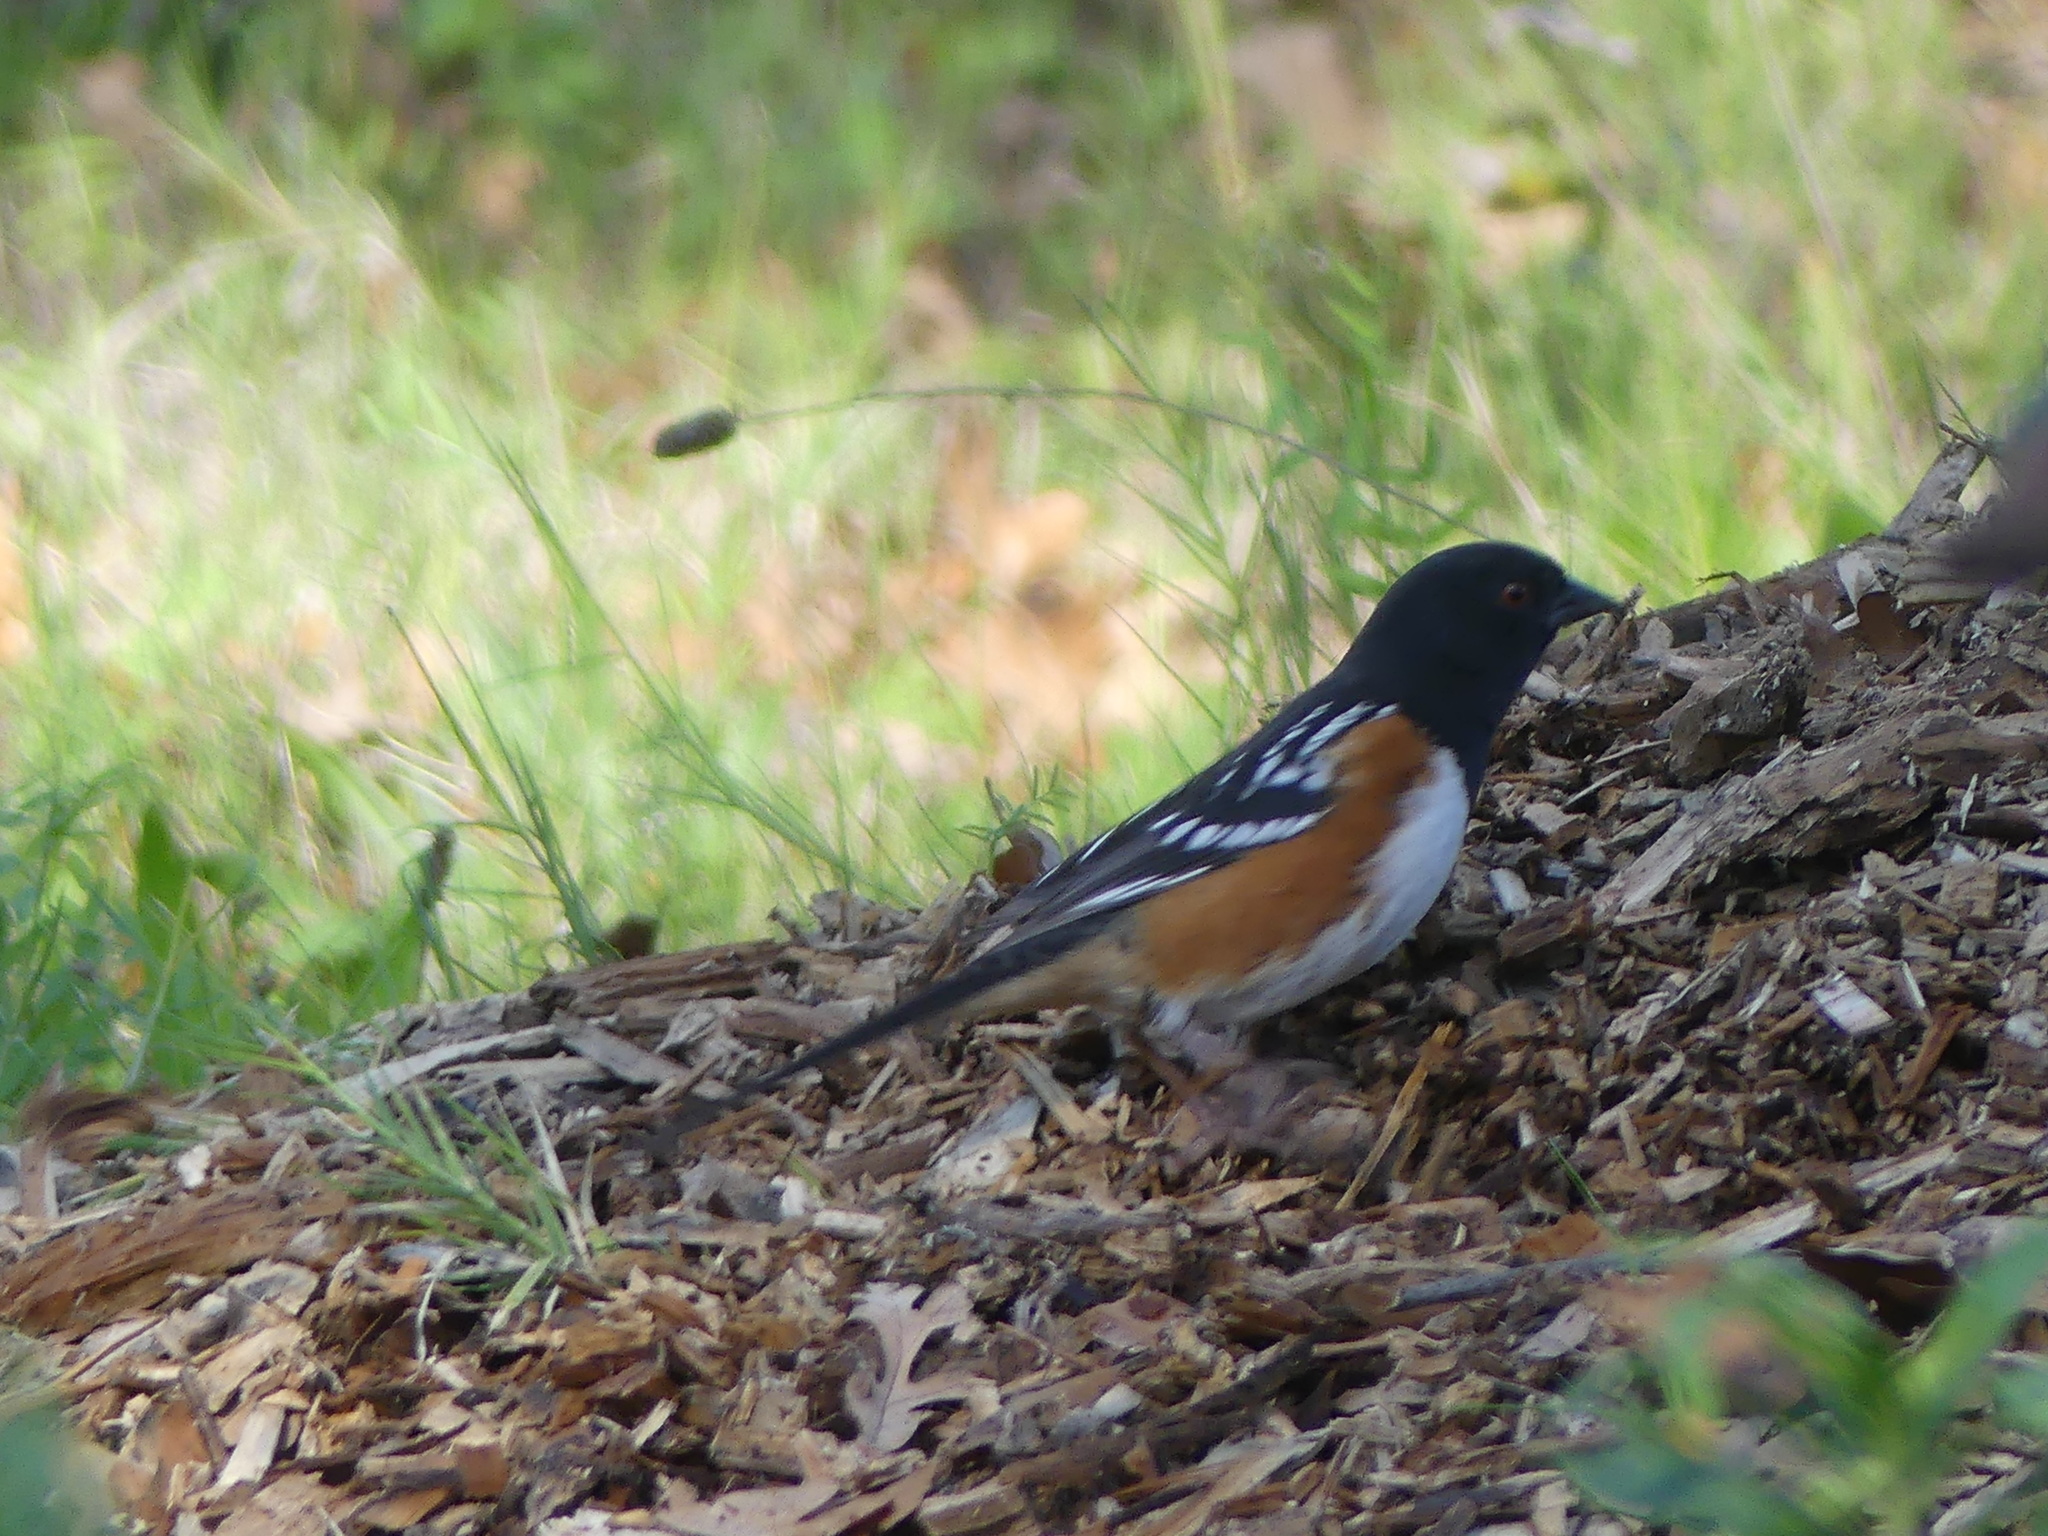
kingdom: Animalia
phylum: Chordata
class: Aves
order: Passeriformes
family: Passerellidae
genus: Pipilo
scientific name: Pipilo maculatus
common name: Spotted towhee
